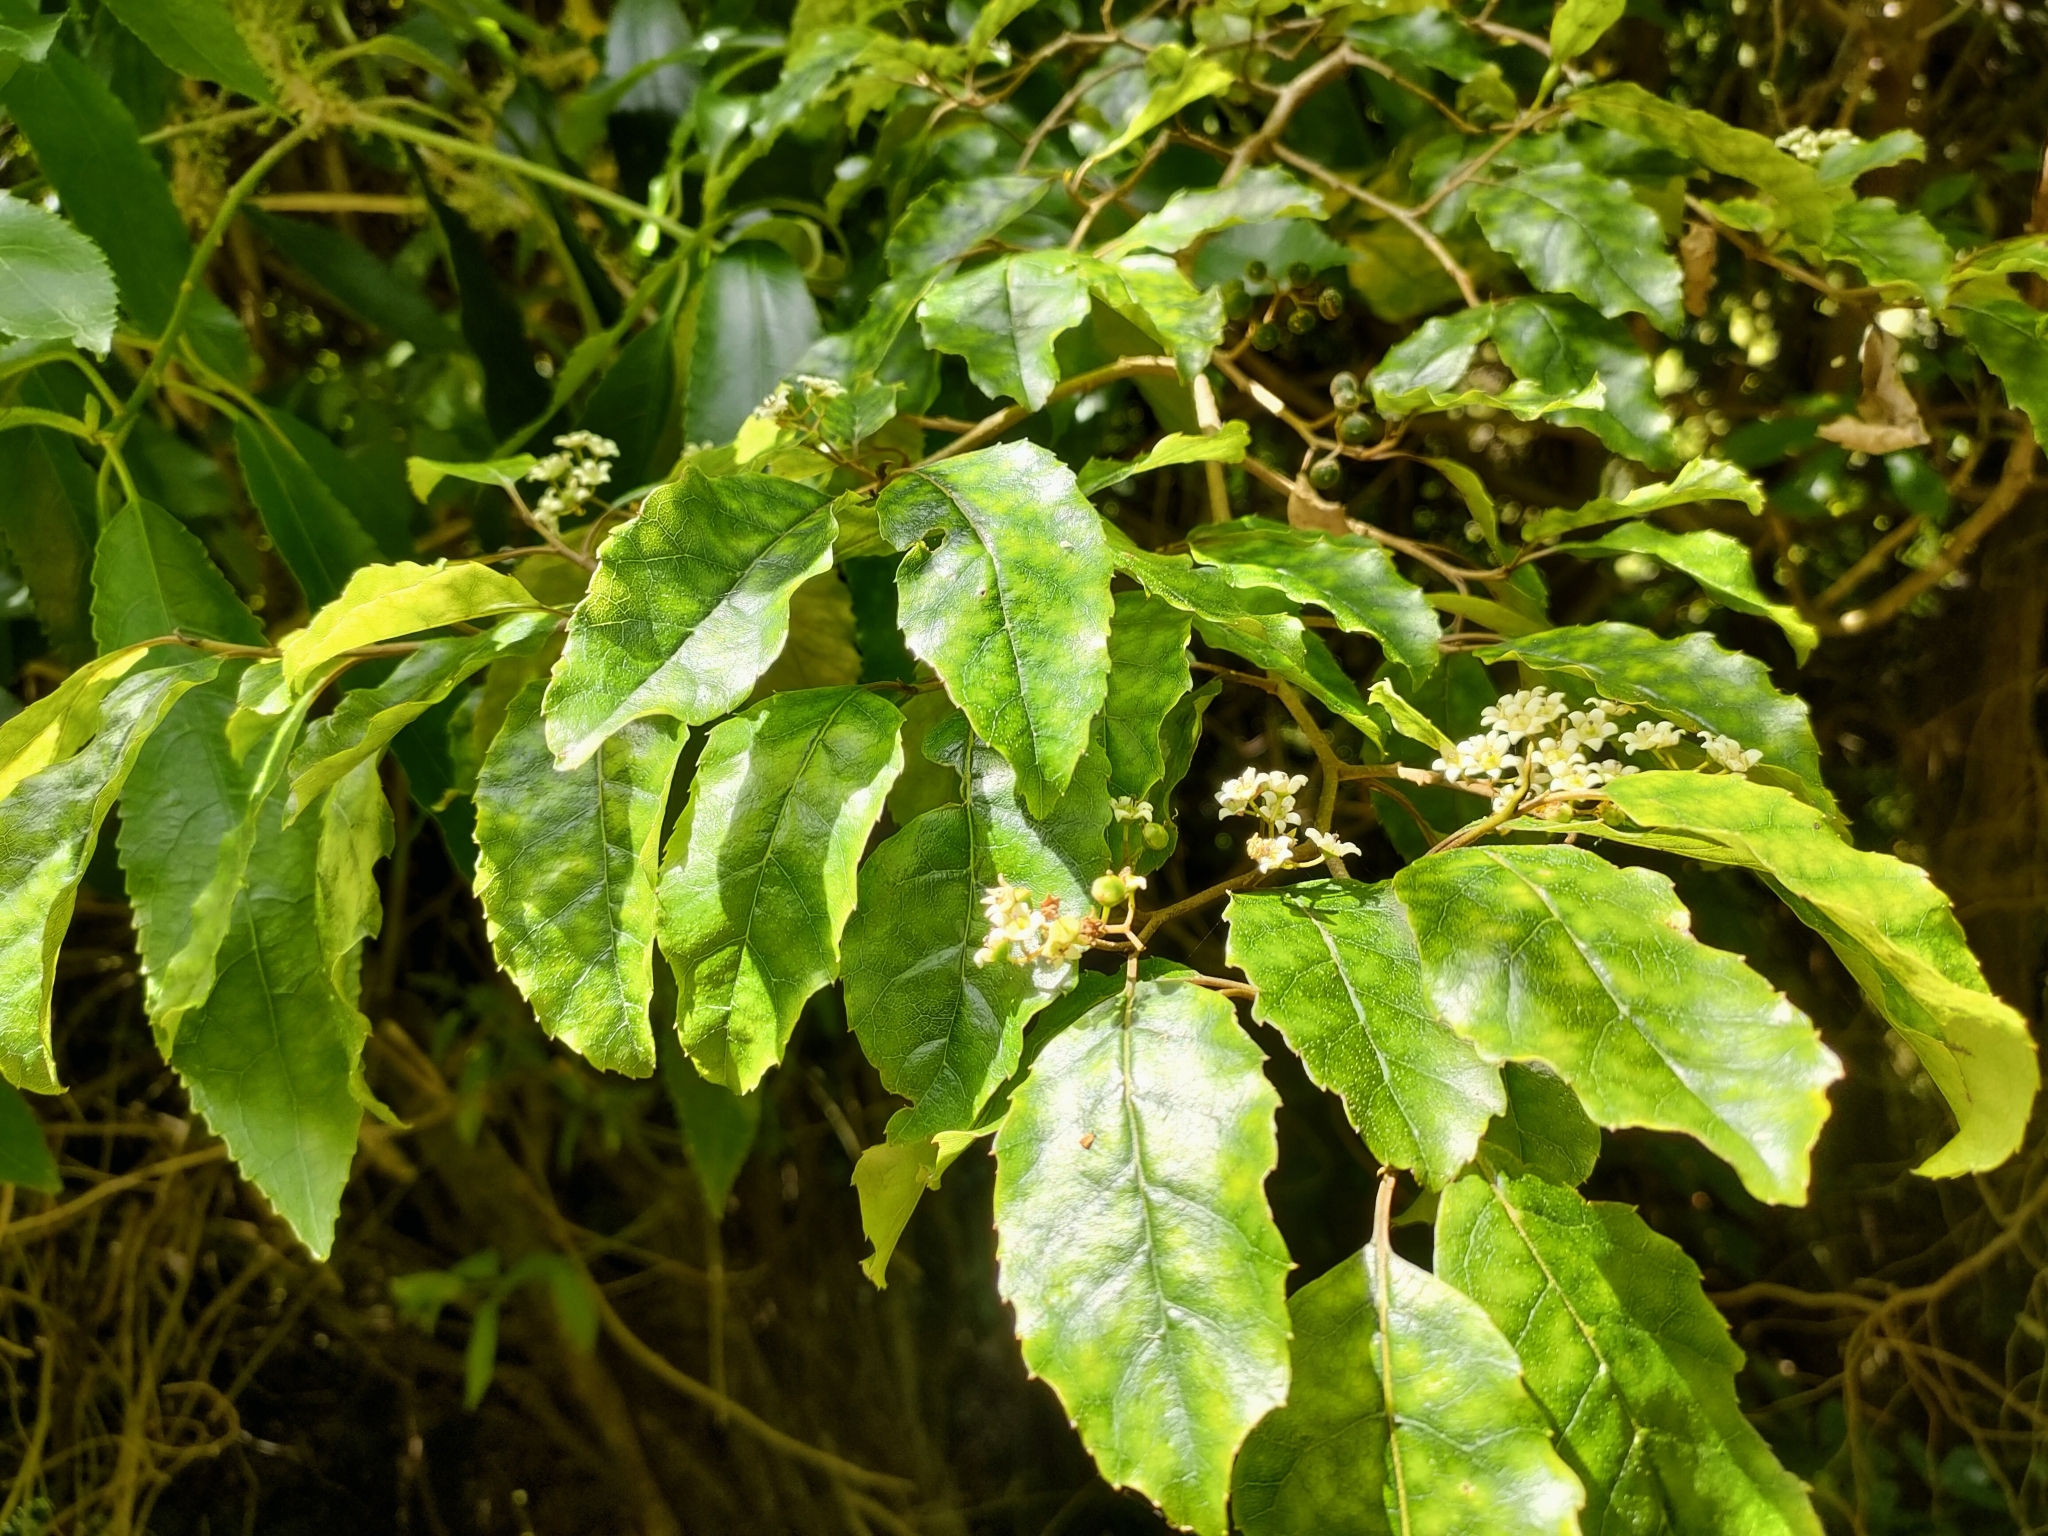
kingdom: Plantae
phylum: Tracheophyta
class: Magnoliopsida
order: Asterales
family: Rousseaceae
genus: Carpodetus
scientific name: Carpodetus serratus
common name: White mapau
